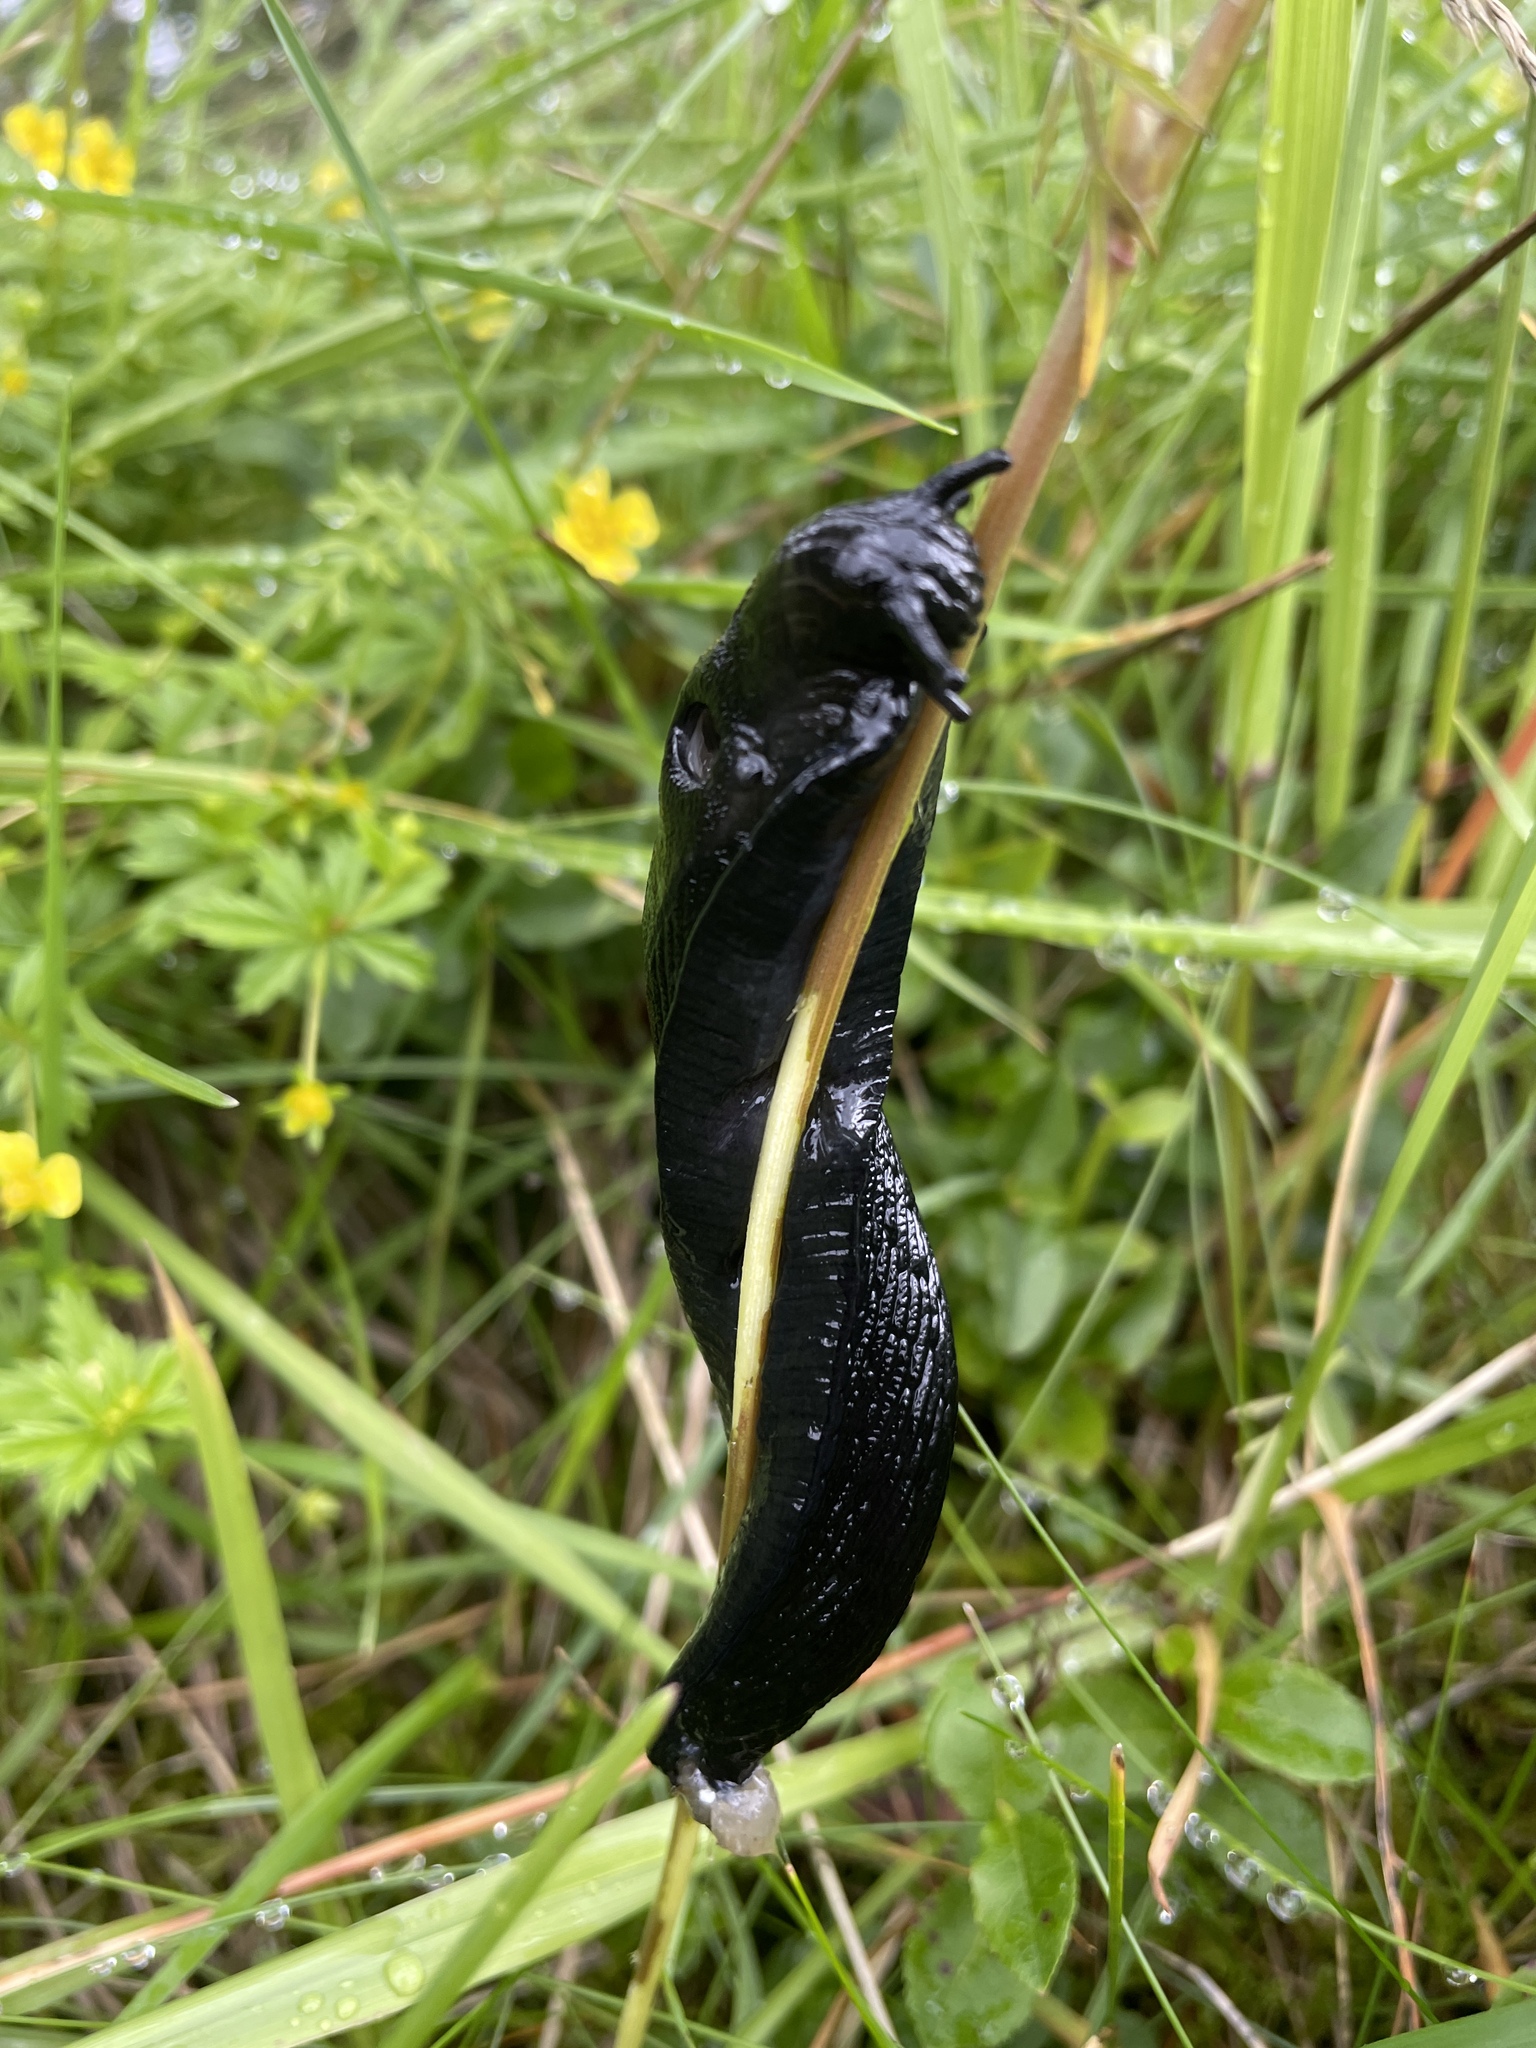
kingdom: Animalia
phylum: Mollusca
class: Gastropoda
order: Stylommatophora
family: Arionidae
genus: Arion
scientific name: Arion ater
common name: Black arion
